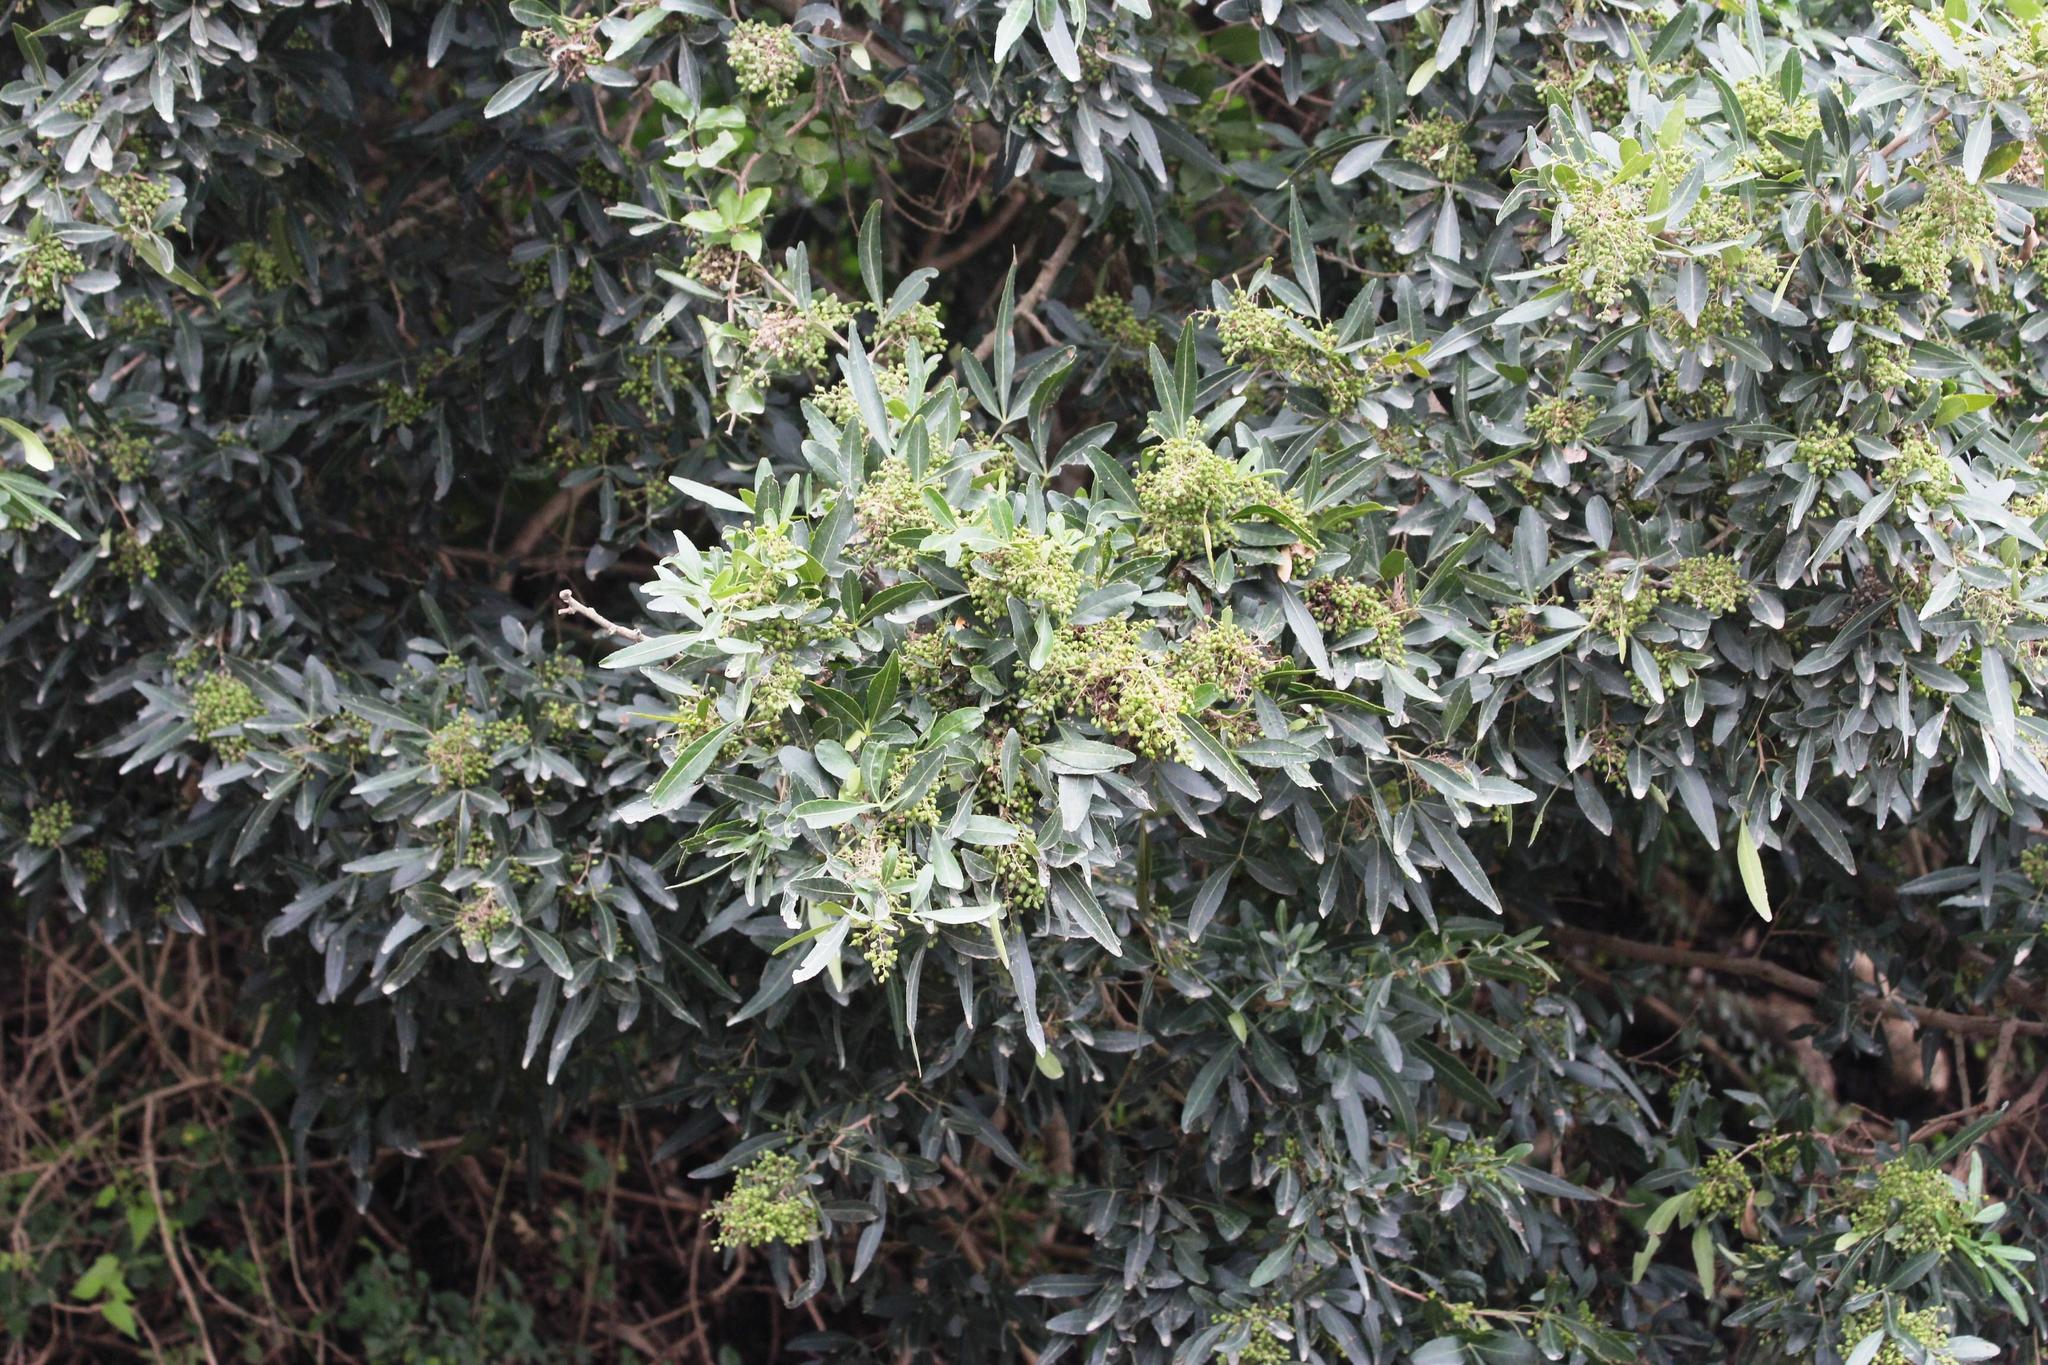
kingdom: Plantae
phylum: Tracheophyta
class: Magnoliopsida
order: Sapindales
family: Anacardiaceae
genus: Searsia
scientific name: Searsia gueinzii
